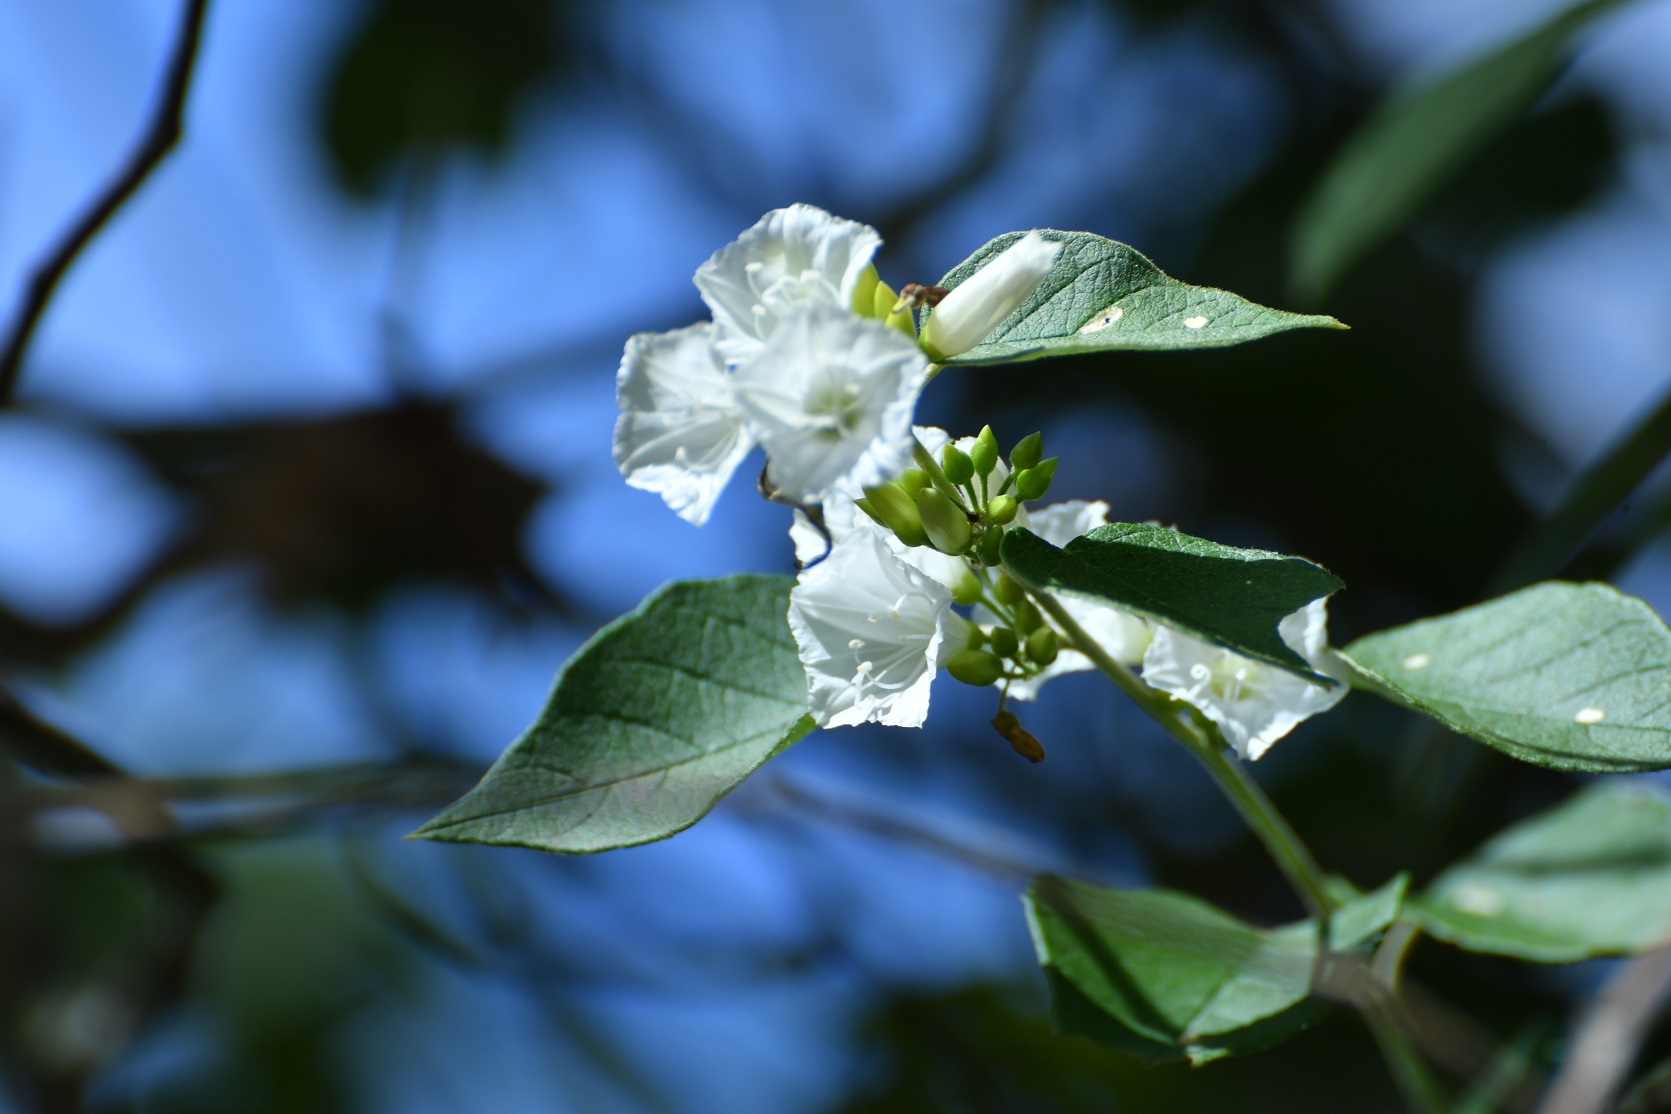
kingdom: Plantae
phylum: Tracheophyta
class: Magnoliopsida
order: Solanales
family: Convolvulaceae
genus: Jacquemontia
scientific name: Jacquemontia nodiflora
